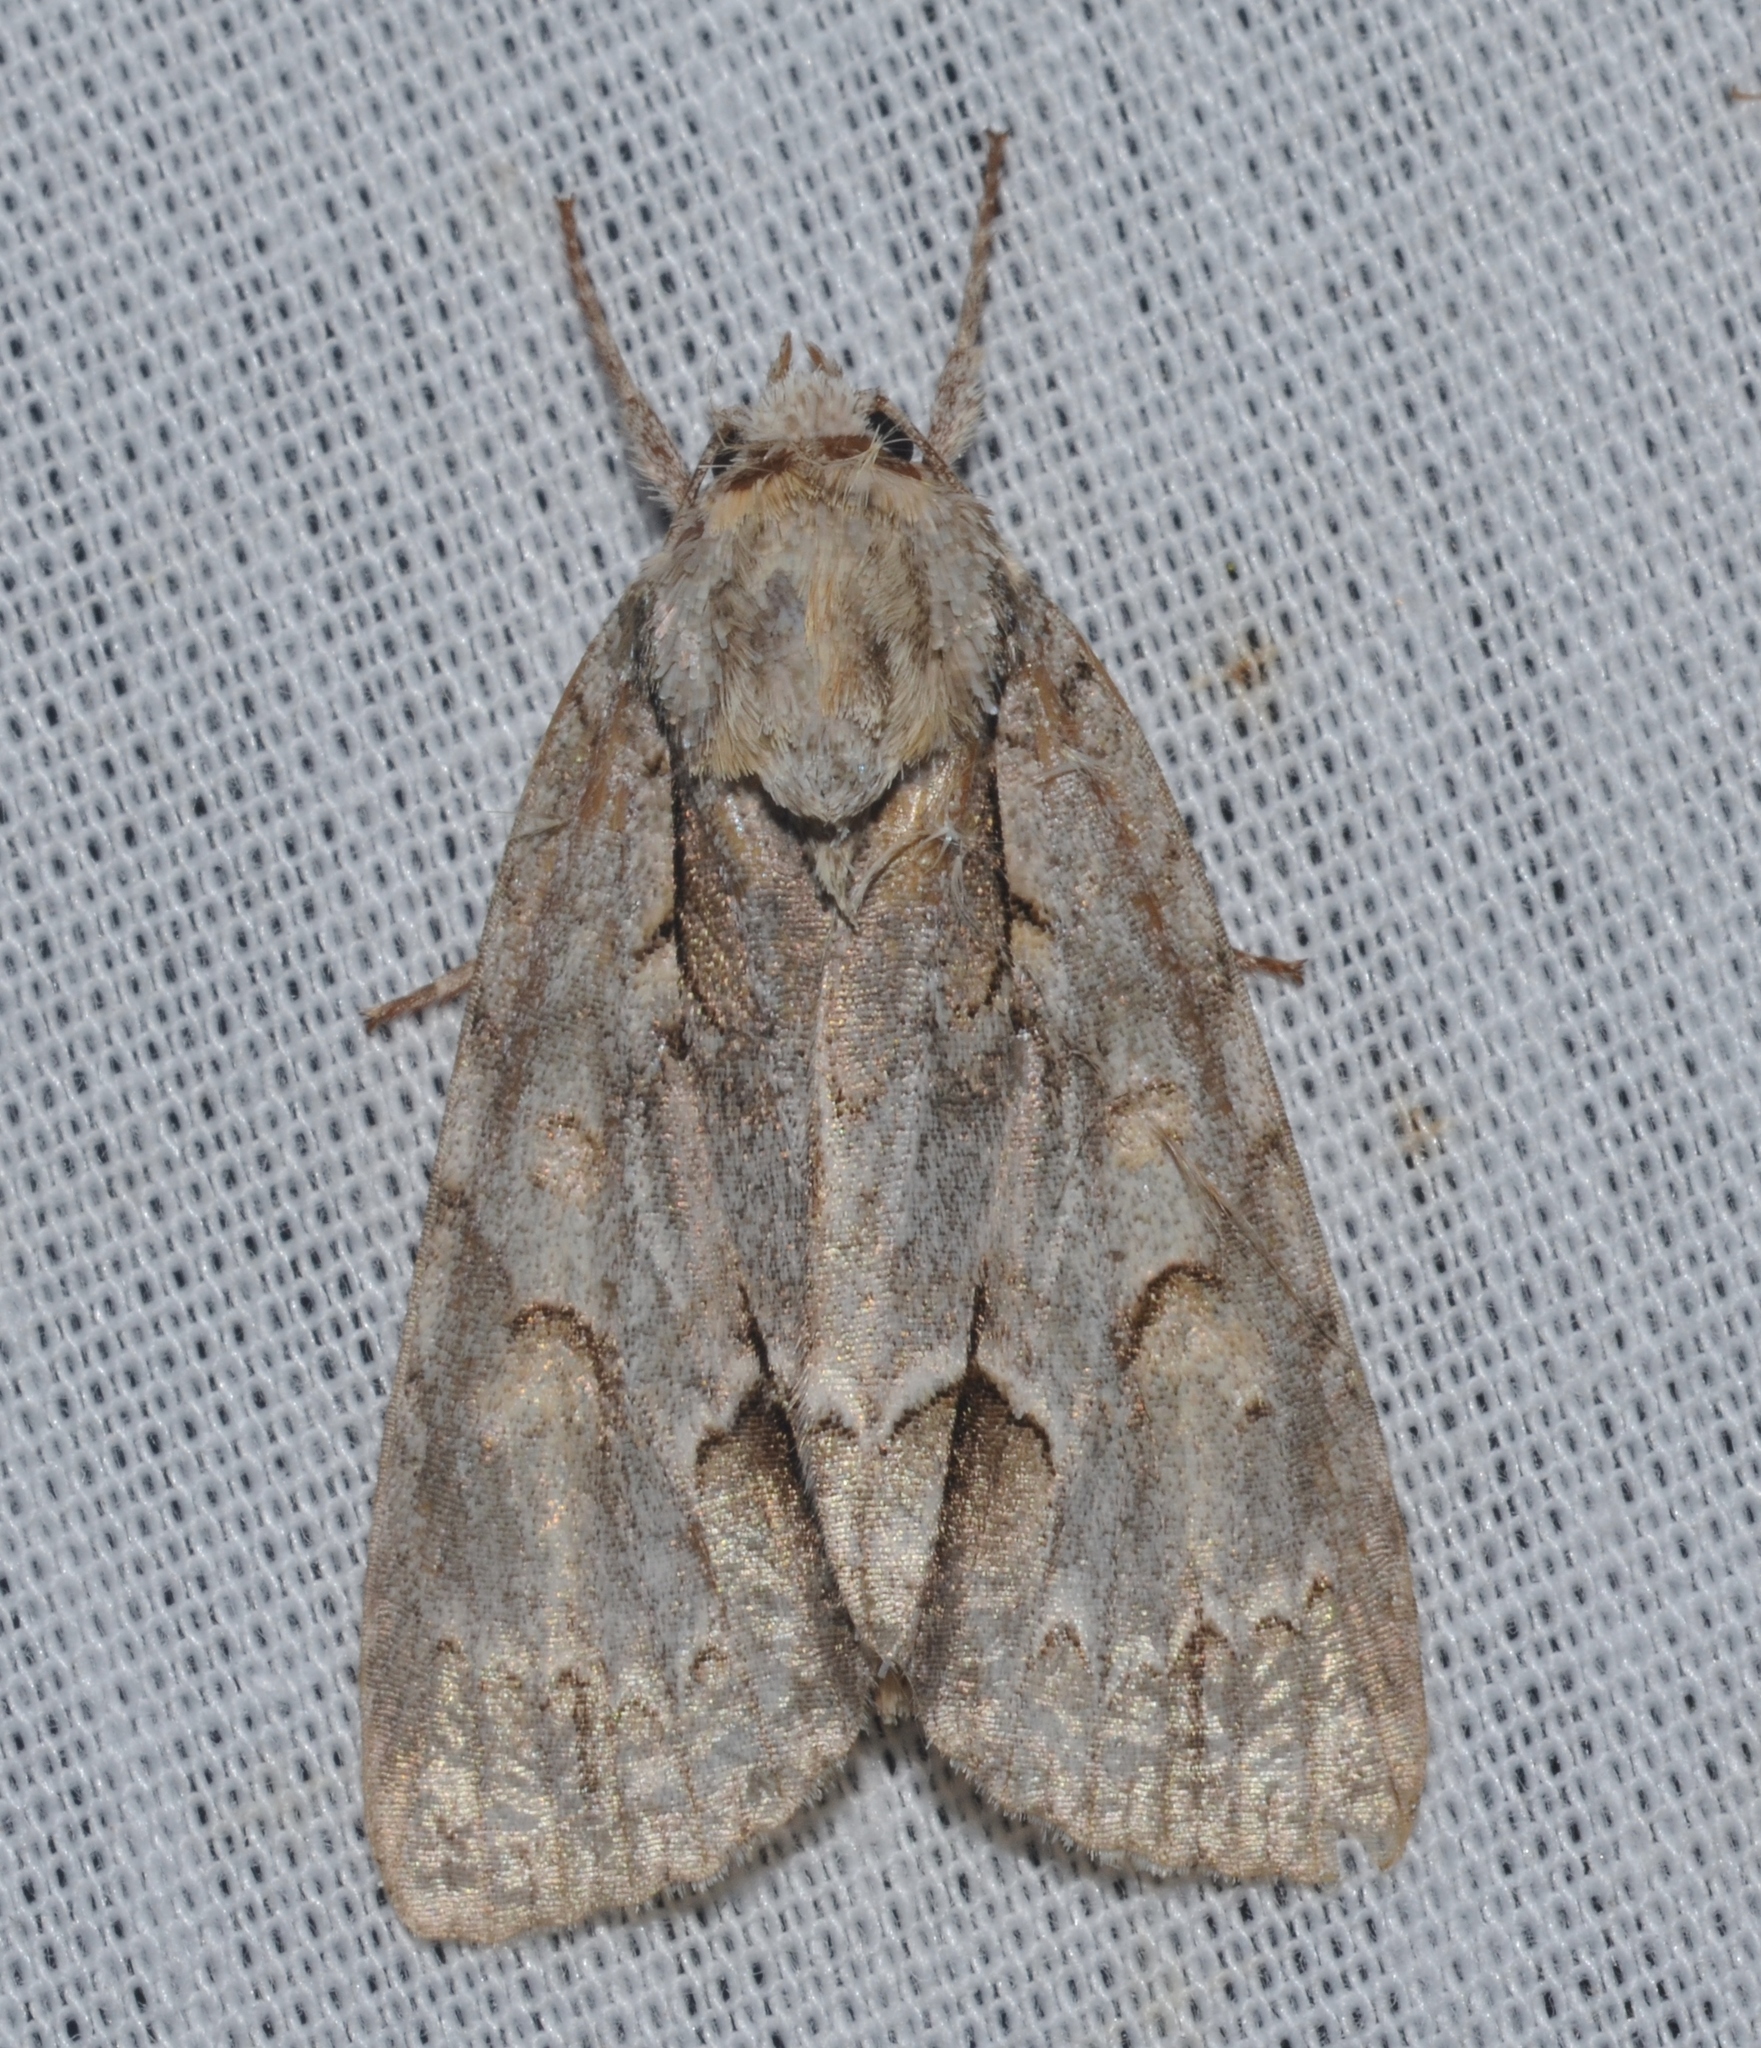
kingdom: Animalia
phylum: Arthropoda
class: Insecta
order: Lepidoptera
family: Noctuidae
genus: Acronicta
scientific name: Acronicta morula
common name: Ochre dagger
